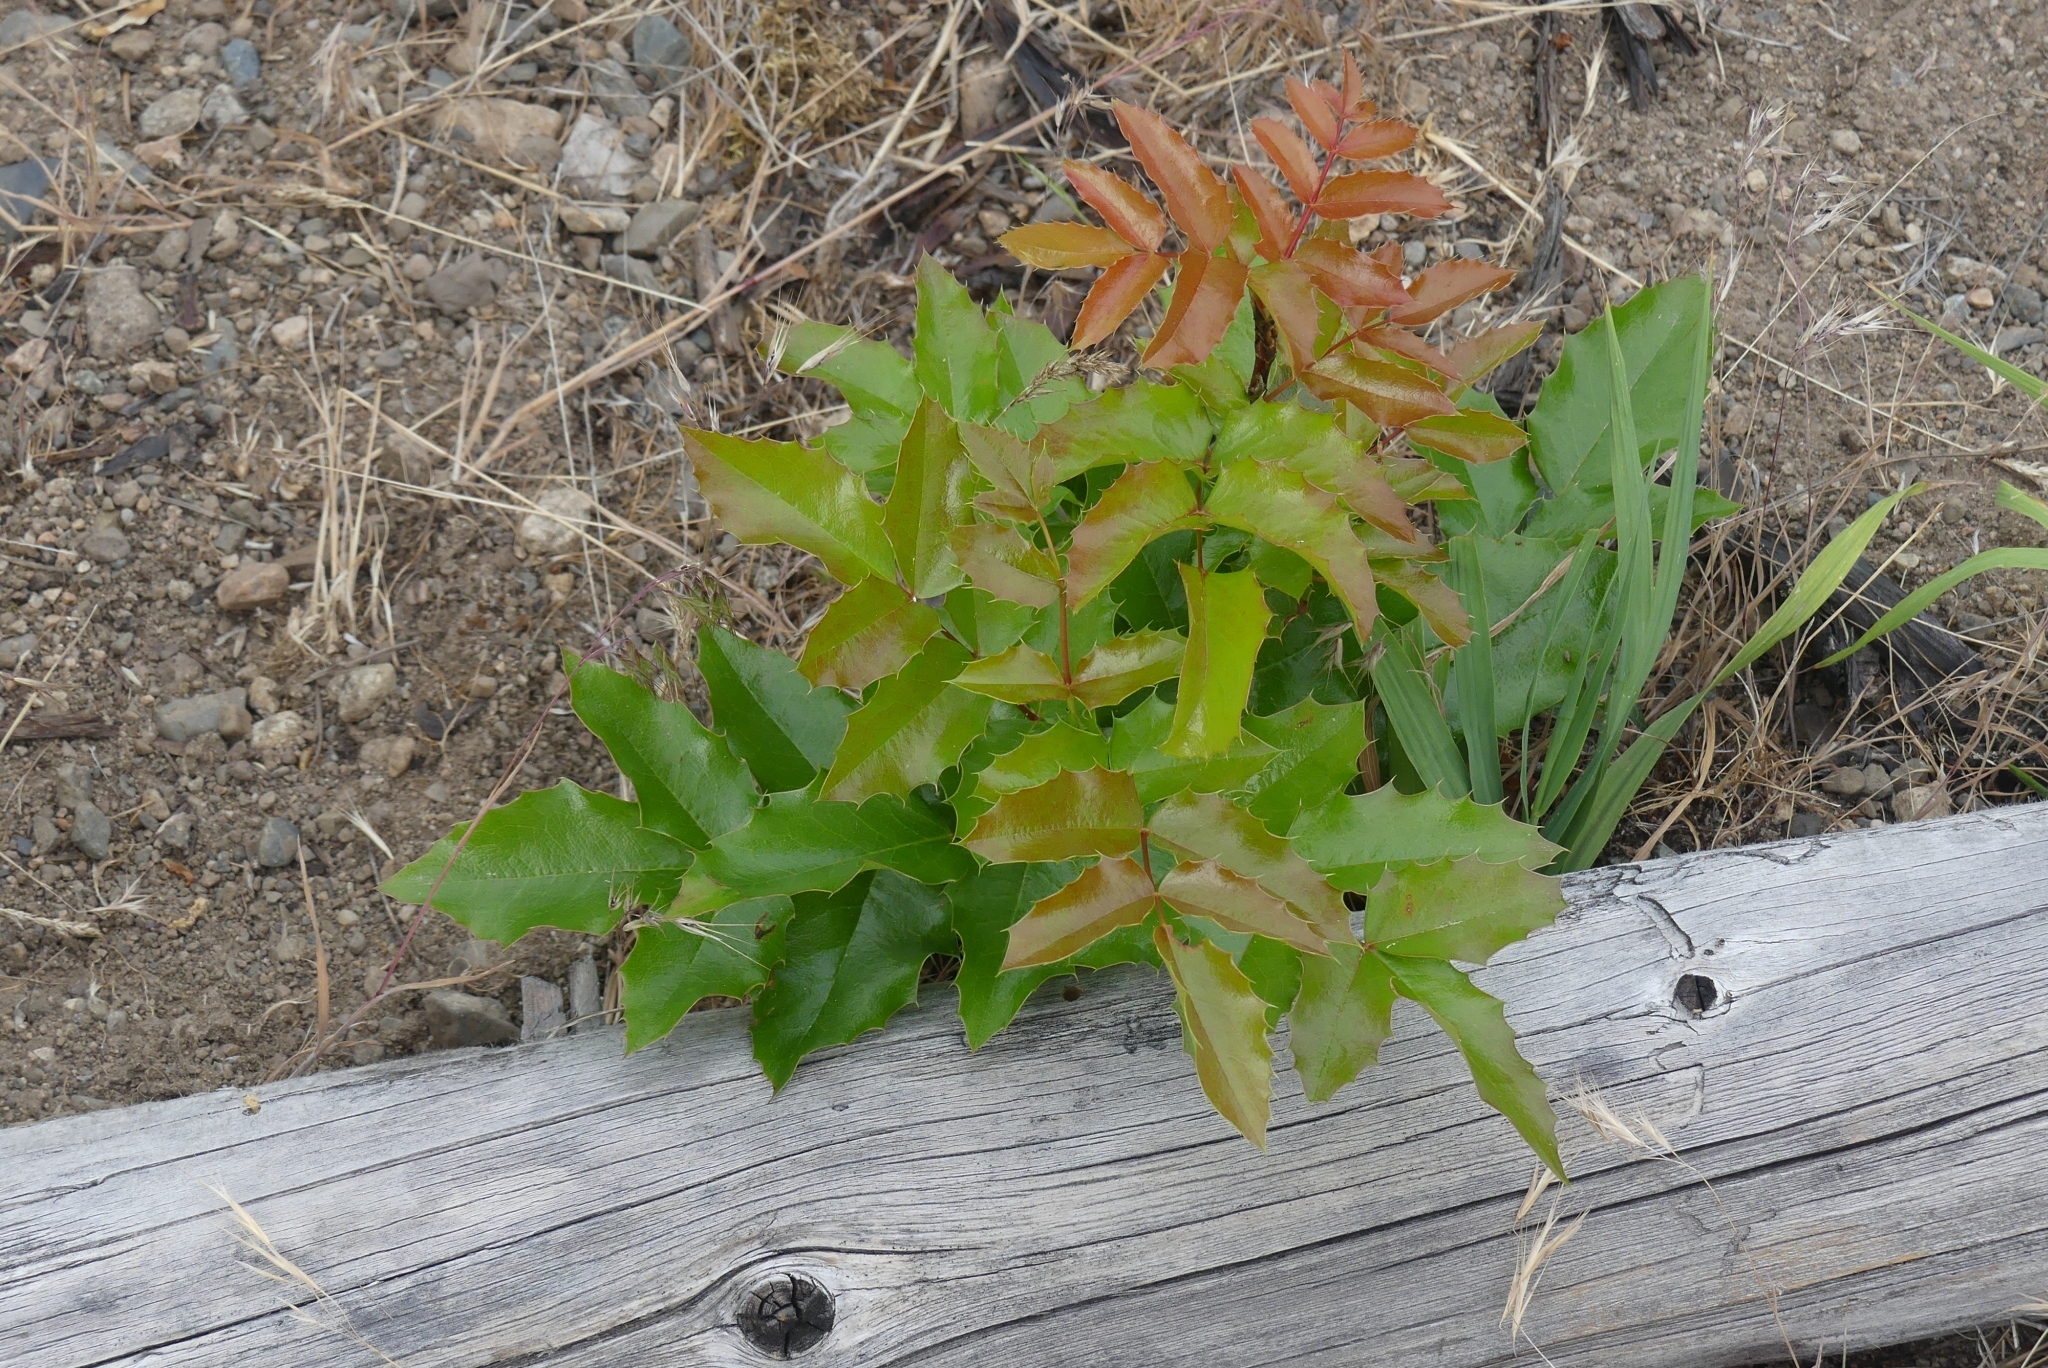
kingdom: Plantae
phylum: Tracheophyta
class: Magnoliopsida
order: Ranunculales
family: Berberidaceae
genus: Mahonia
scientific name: Mahonia aquifolium
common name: Oregon-grape
